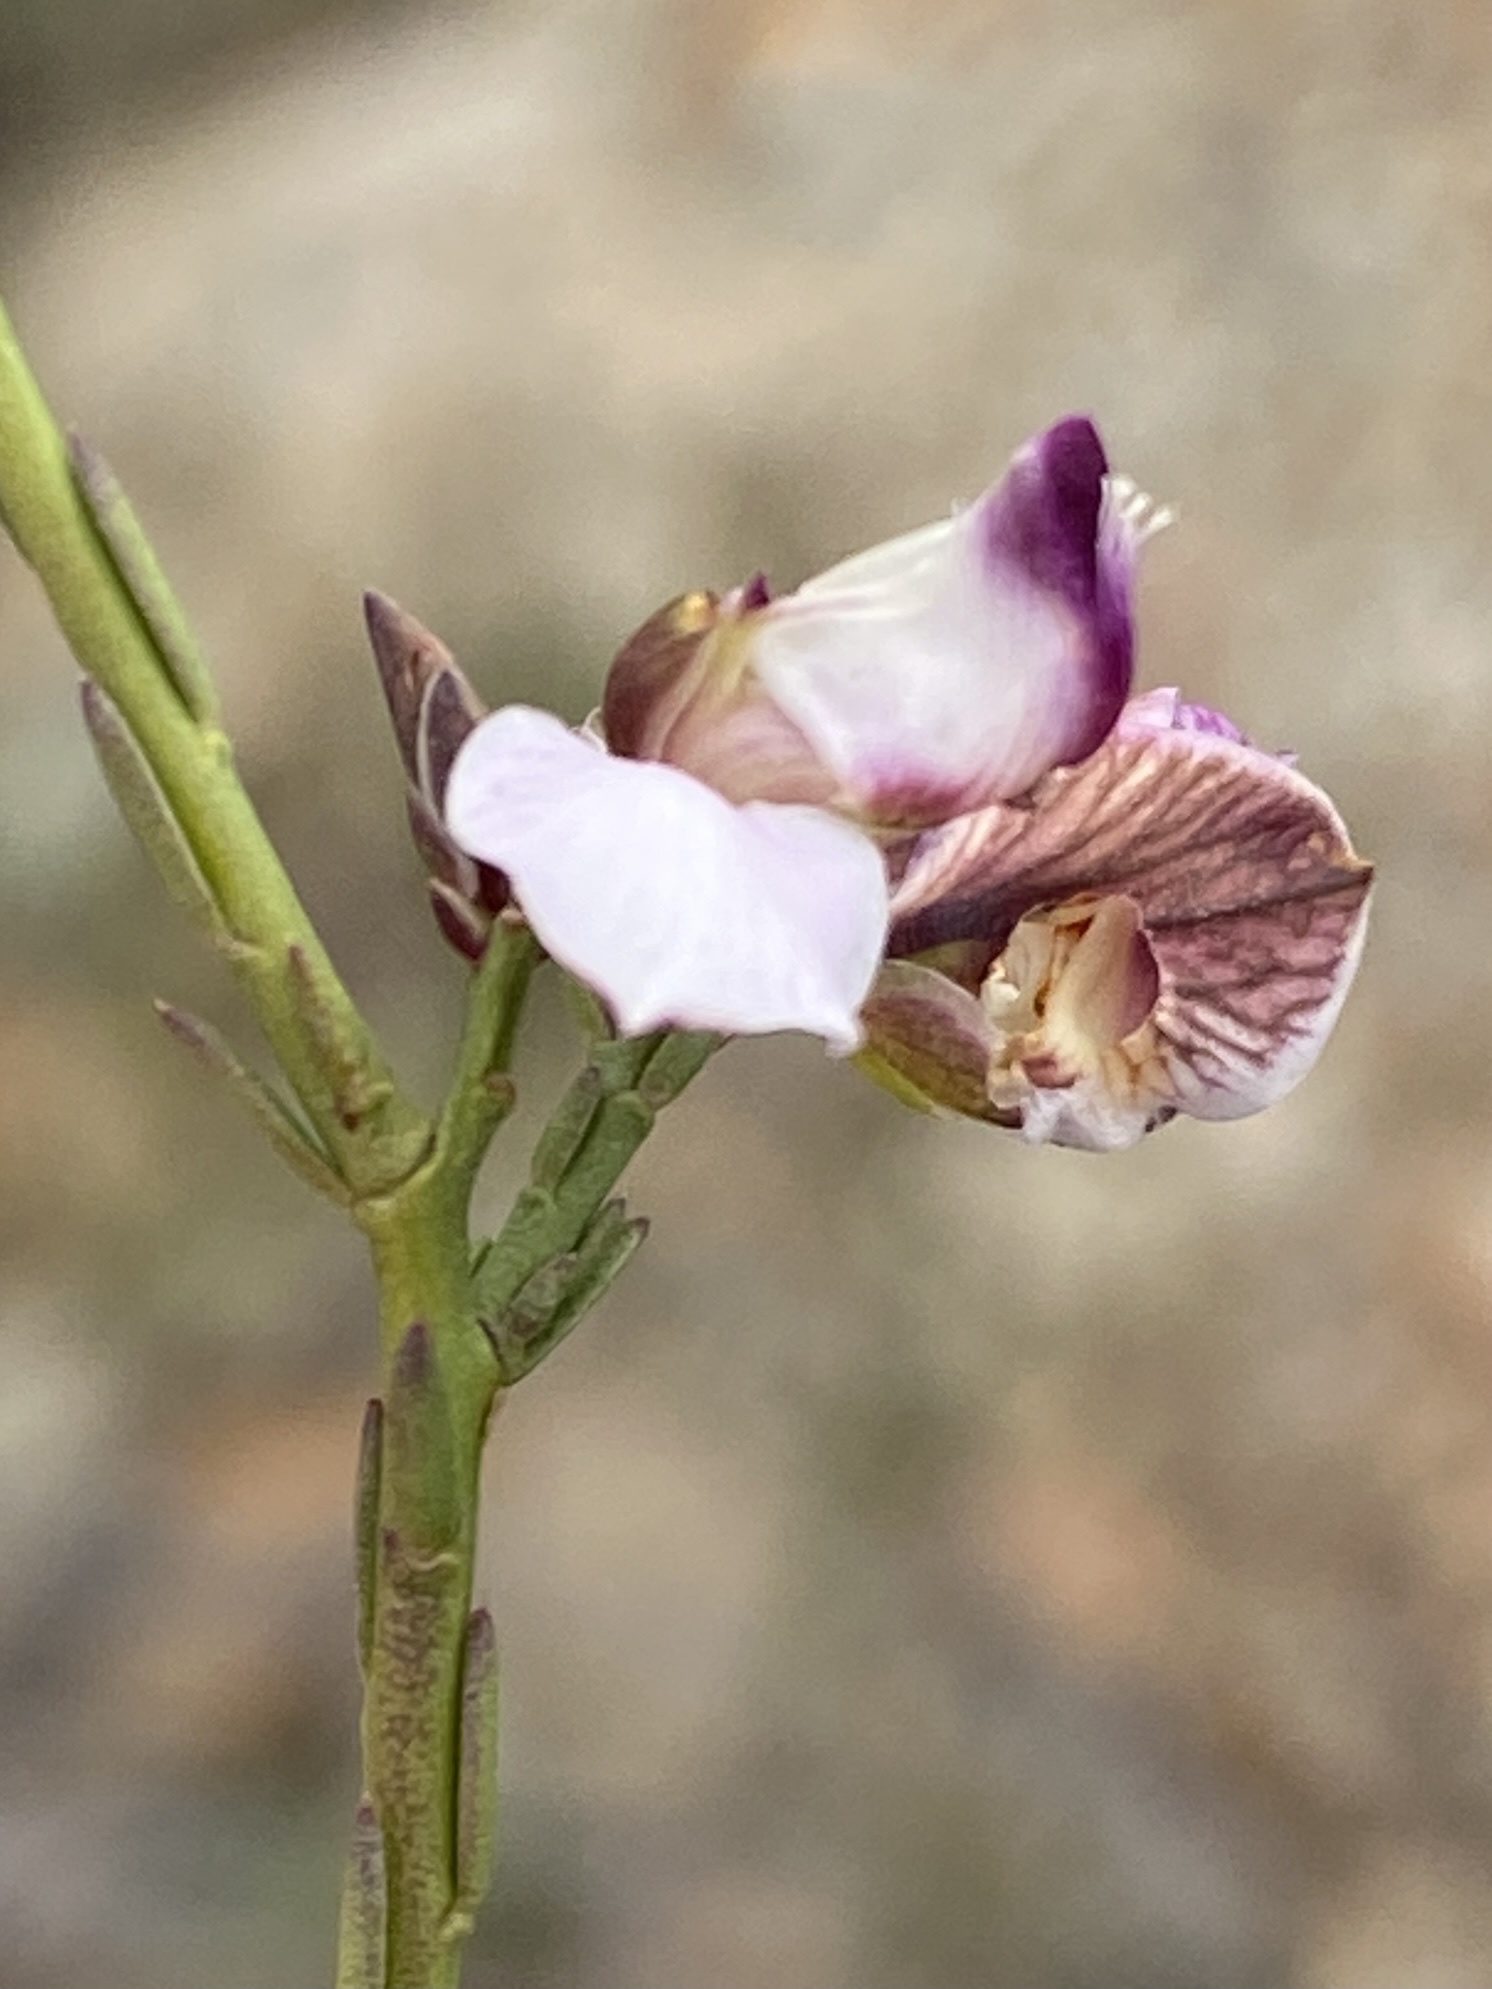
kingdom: Plantae
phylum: Tracheophyta
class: Magnoliopsida
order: Fabales
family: Polygalaceae
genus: Polygala
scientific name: Polygala microlopha
